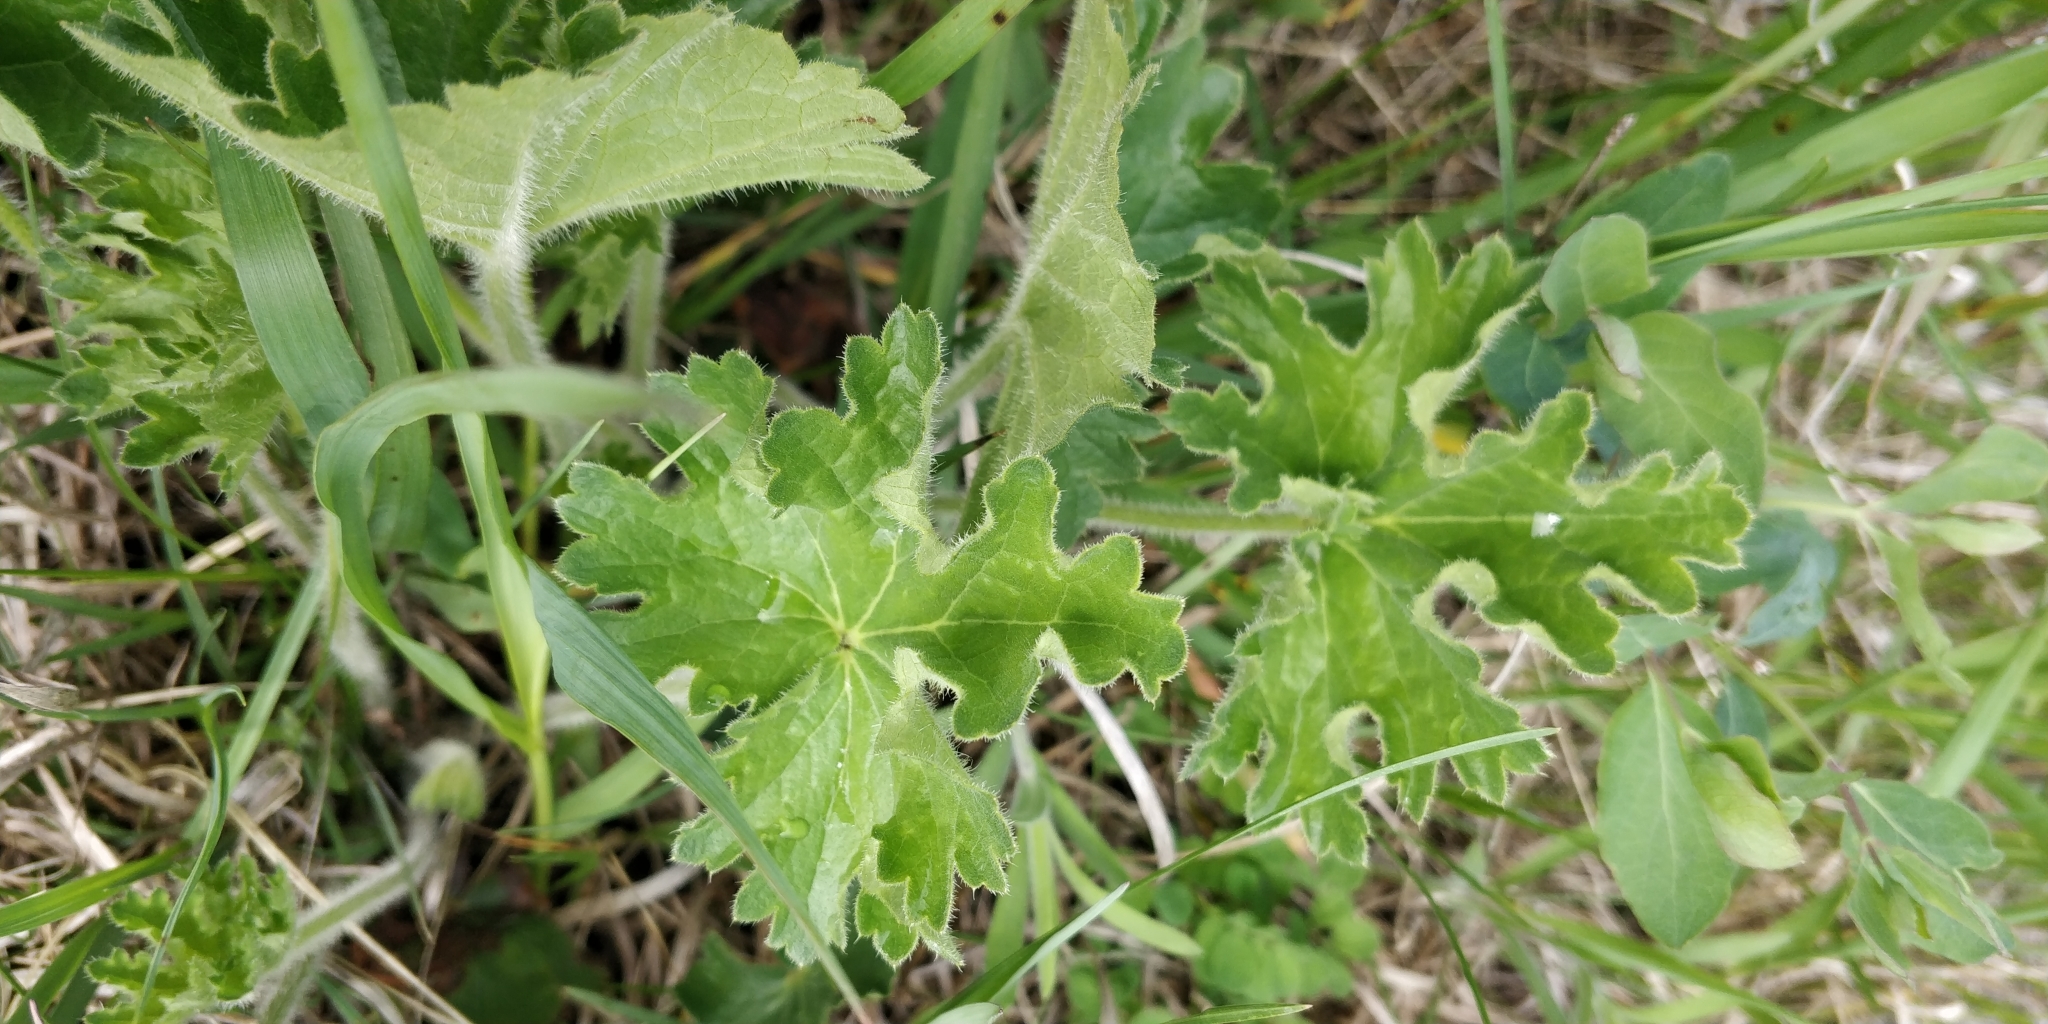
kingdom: Plantae
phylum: Tracheophyta
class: Magnoliopsida
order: Saxifragales
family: Saxifragaceae
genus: Heuchera
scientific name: Heuchera richardsonii
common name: Richardson's alumroot
